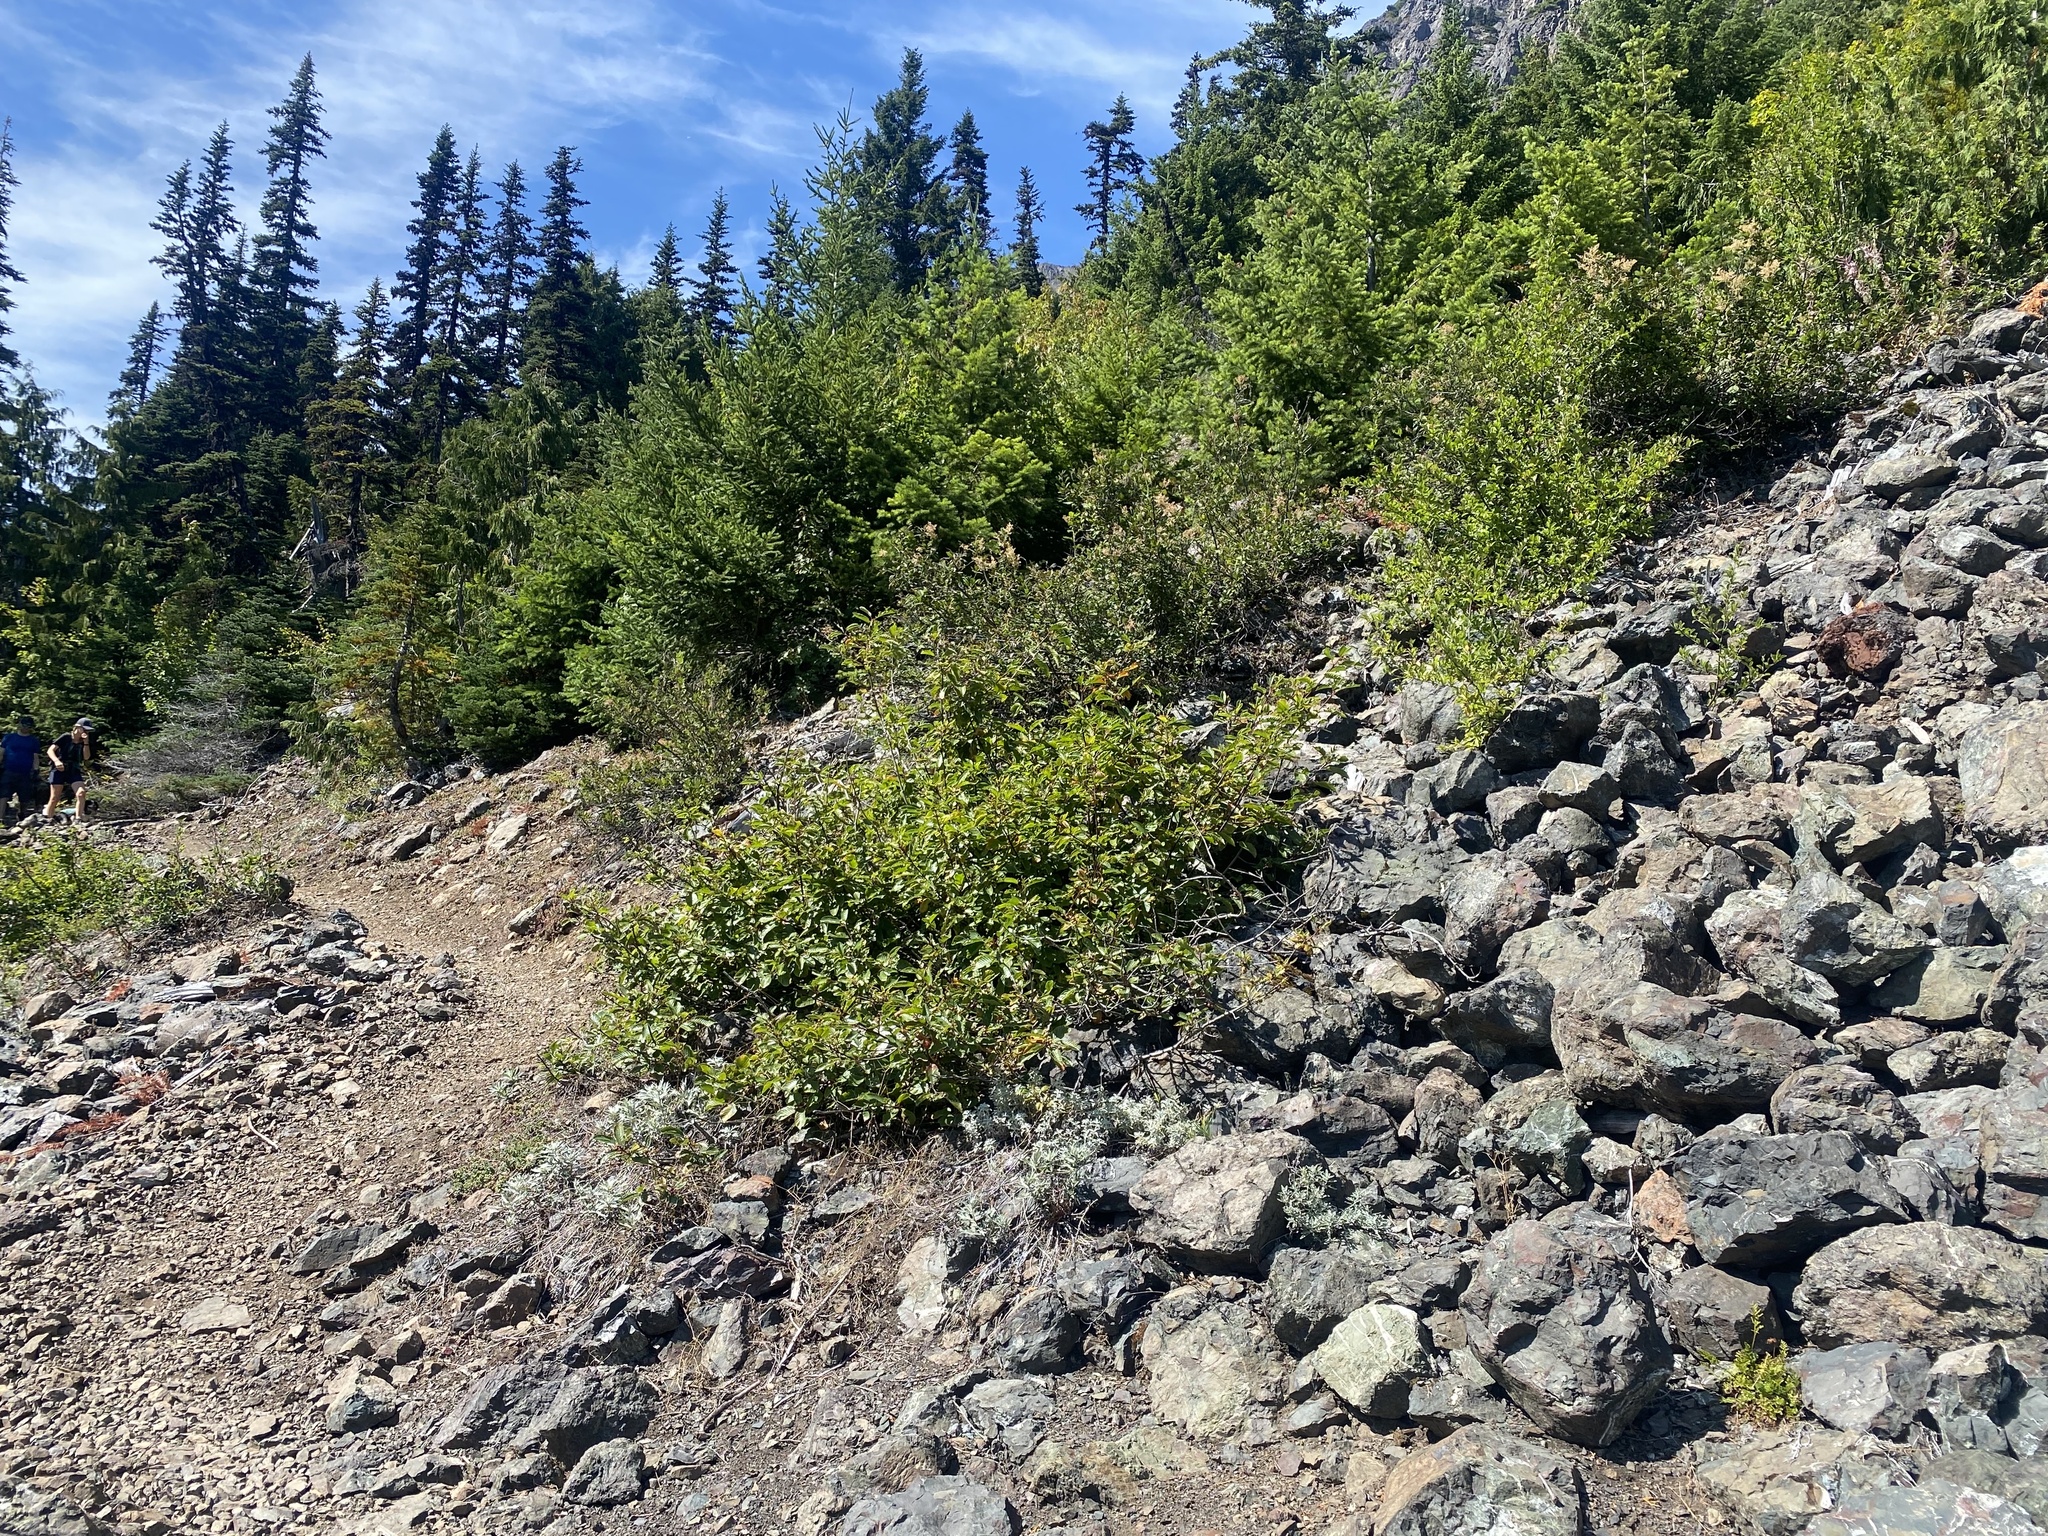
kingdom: Plantae
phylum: Tracheophyta
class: Magnoliopsida
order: Rosales
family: Rhamnaceae
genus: Frangula
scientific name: Frangula purshiana
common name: Cascara buckthorn
